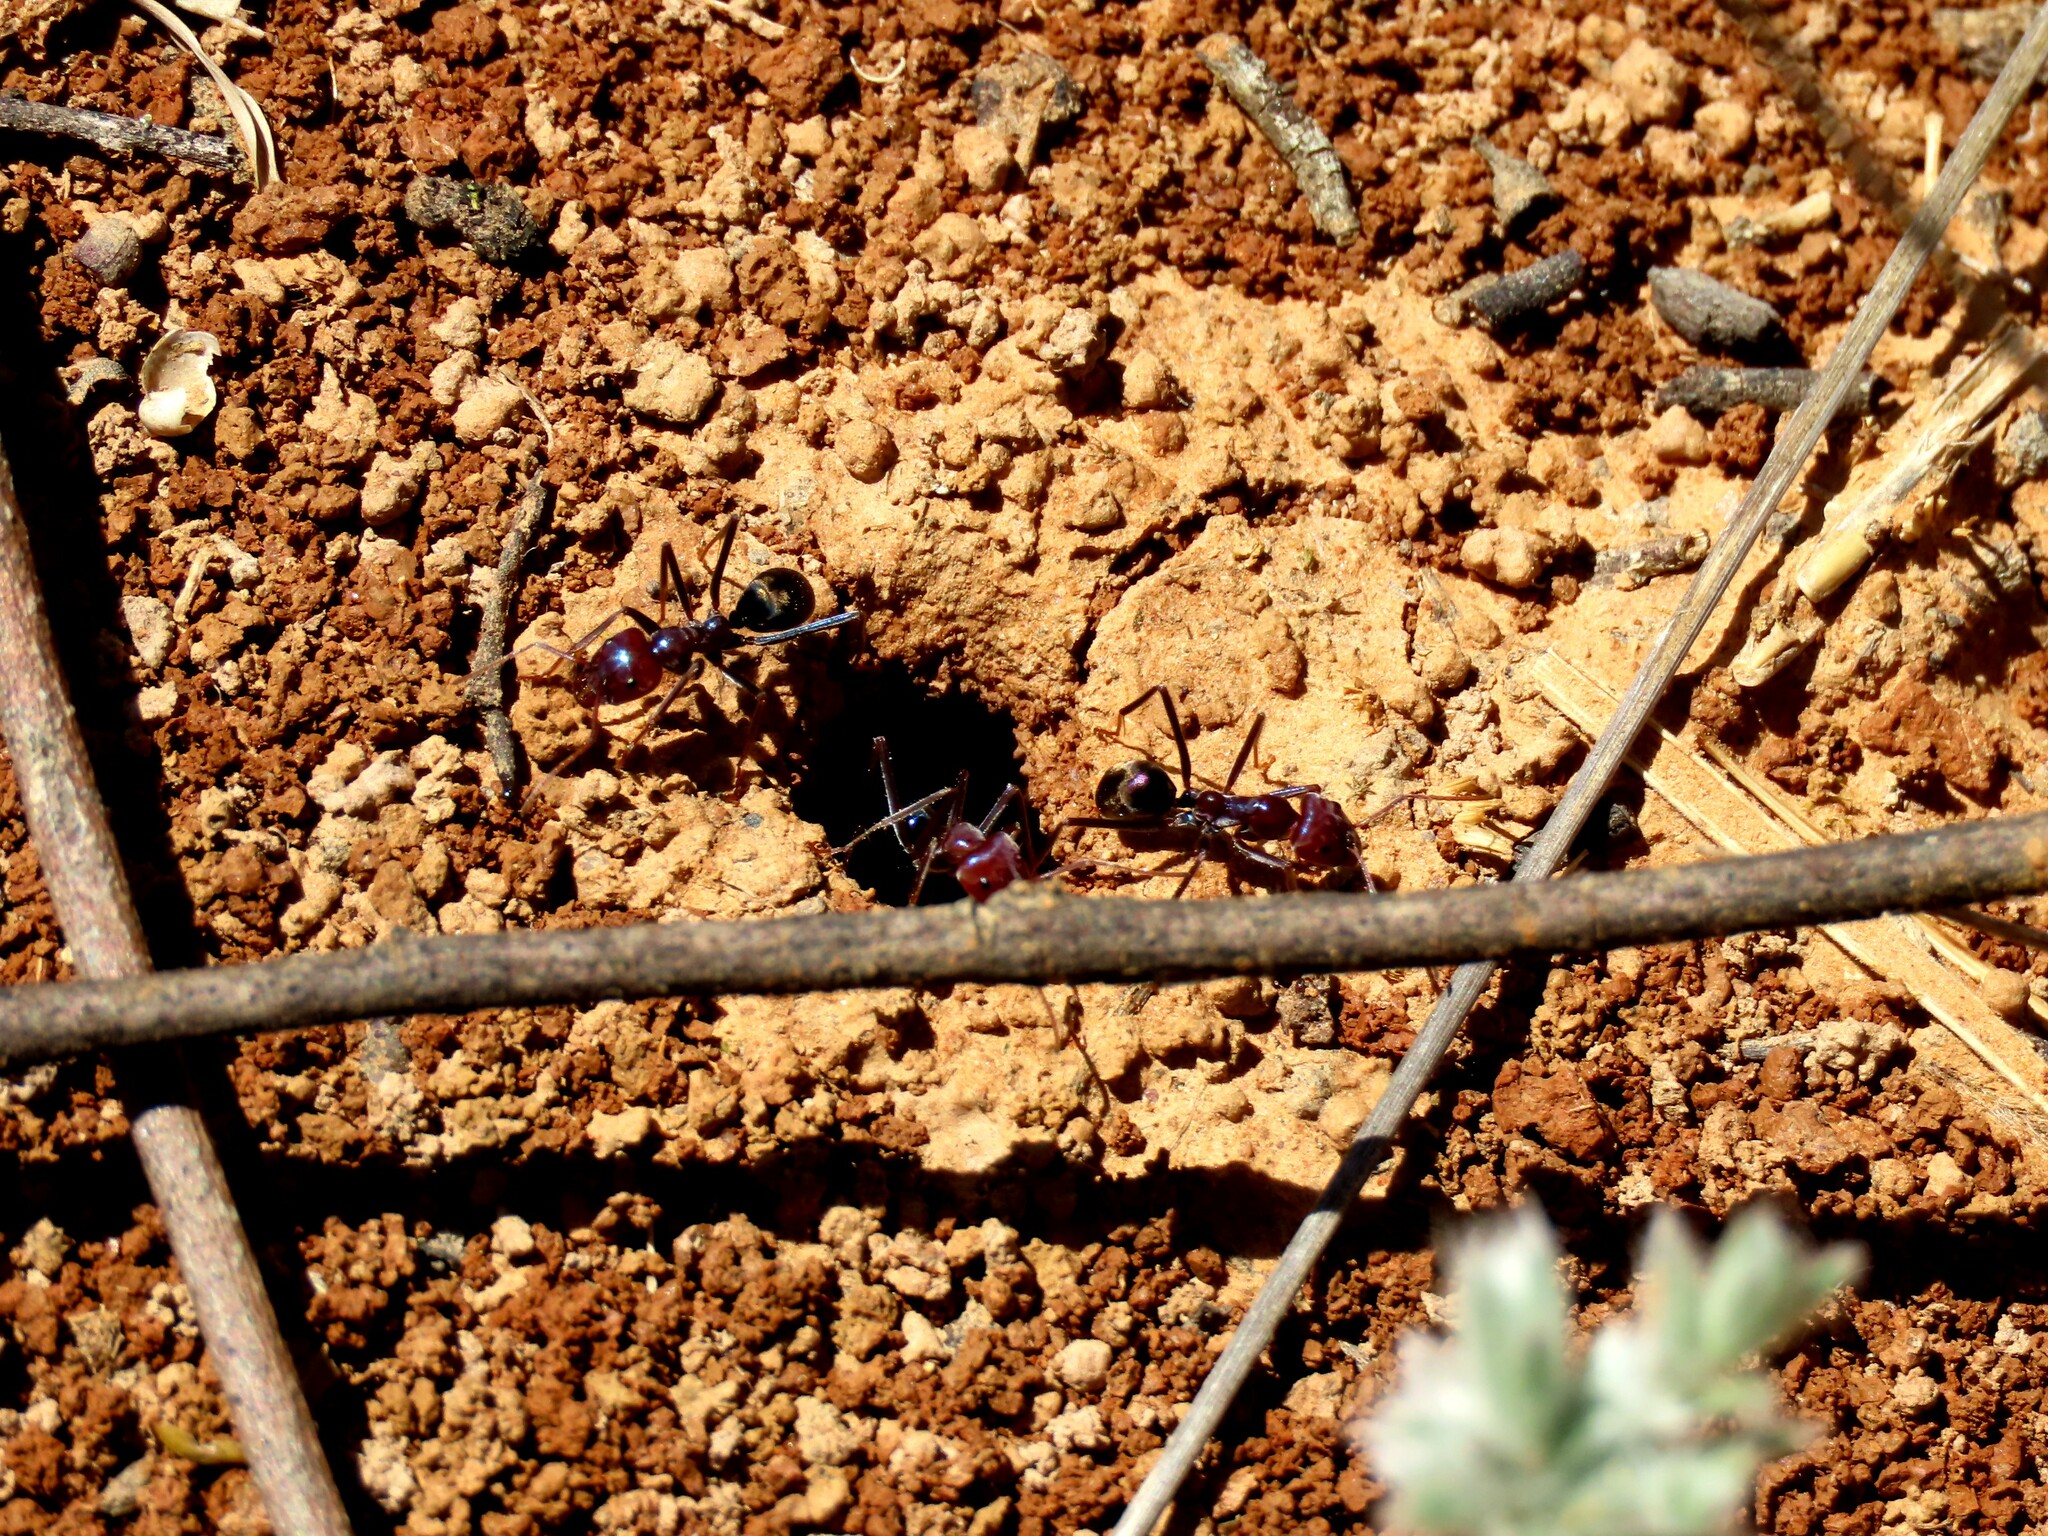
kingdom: Animalia
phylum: Arthropoda
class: Insecta
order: Hymenoptera
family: Formicidae
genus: Iridomyrmex
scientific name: Iridomyrmex purpureus
